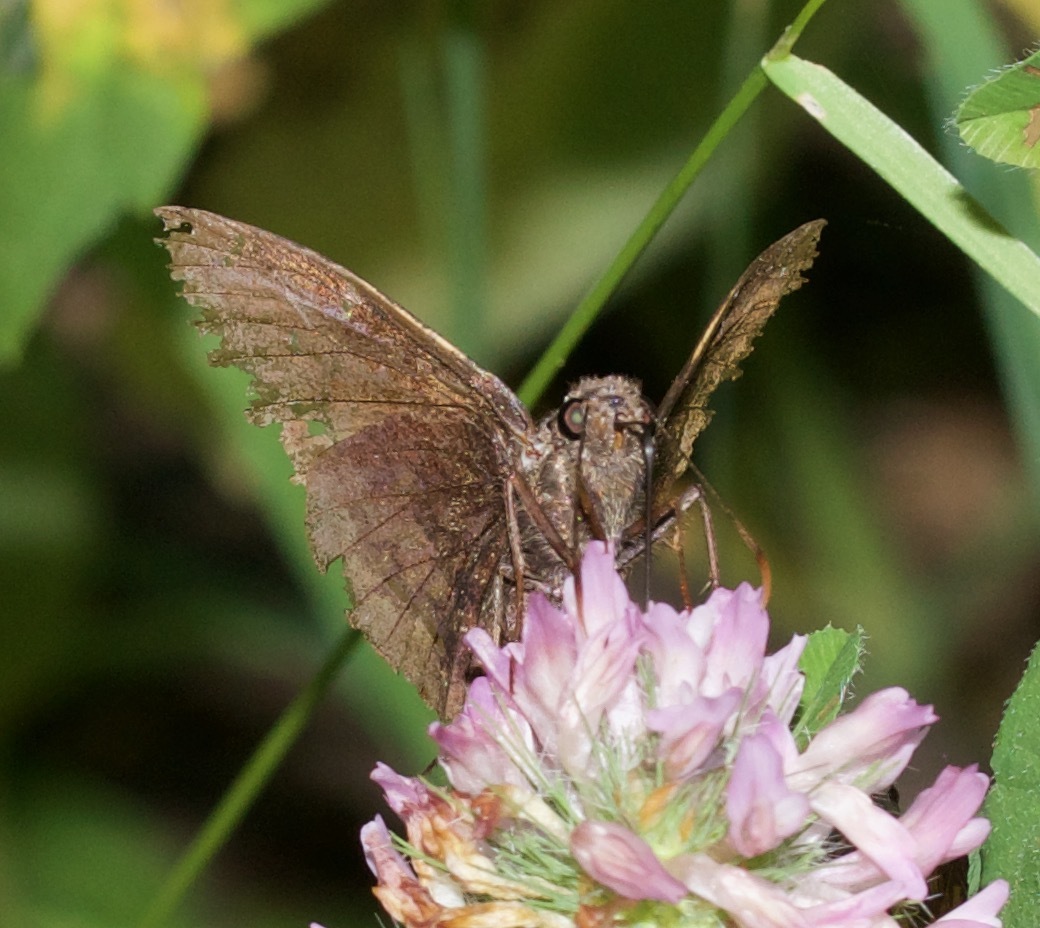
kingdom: Animalia
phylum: Arthropoda
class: Insecta
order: Lepidoptera
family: Hesperiidae
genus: Thorybes
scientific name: Thorybes pylades
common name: Northern cloudywing
